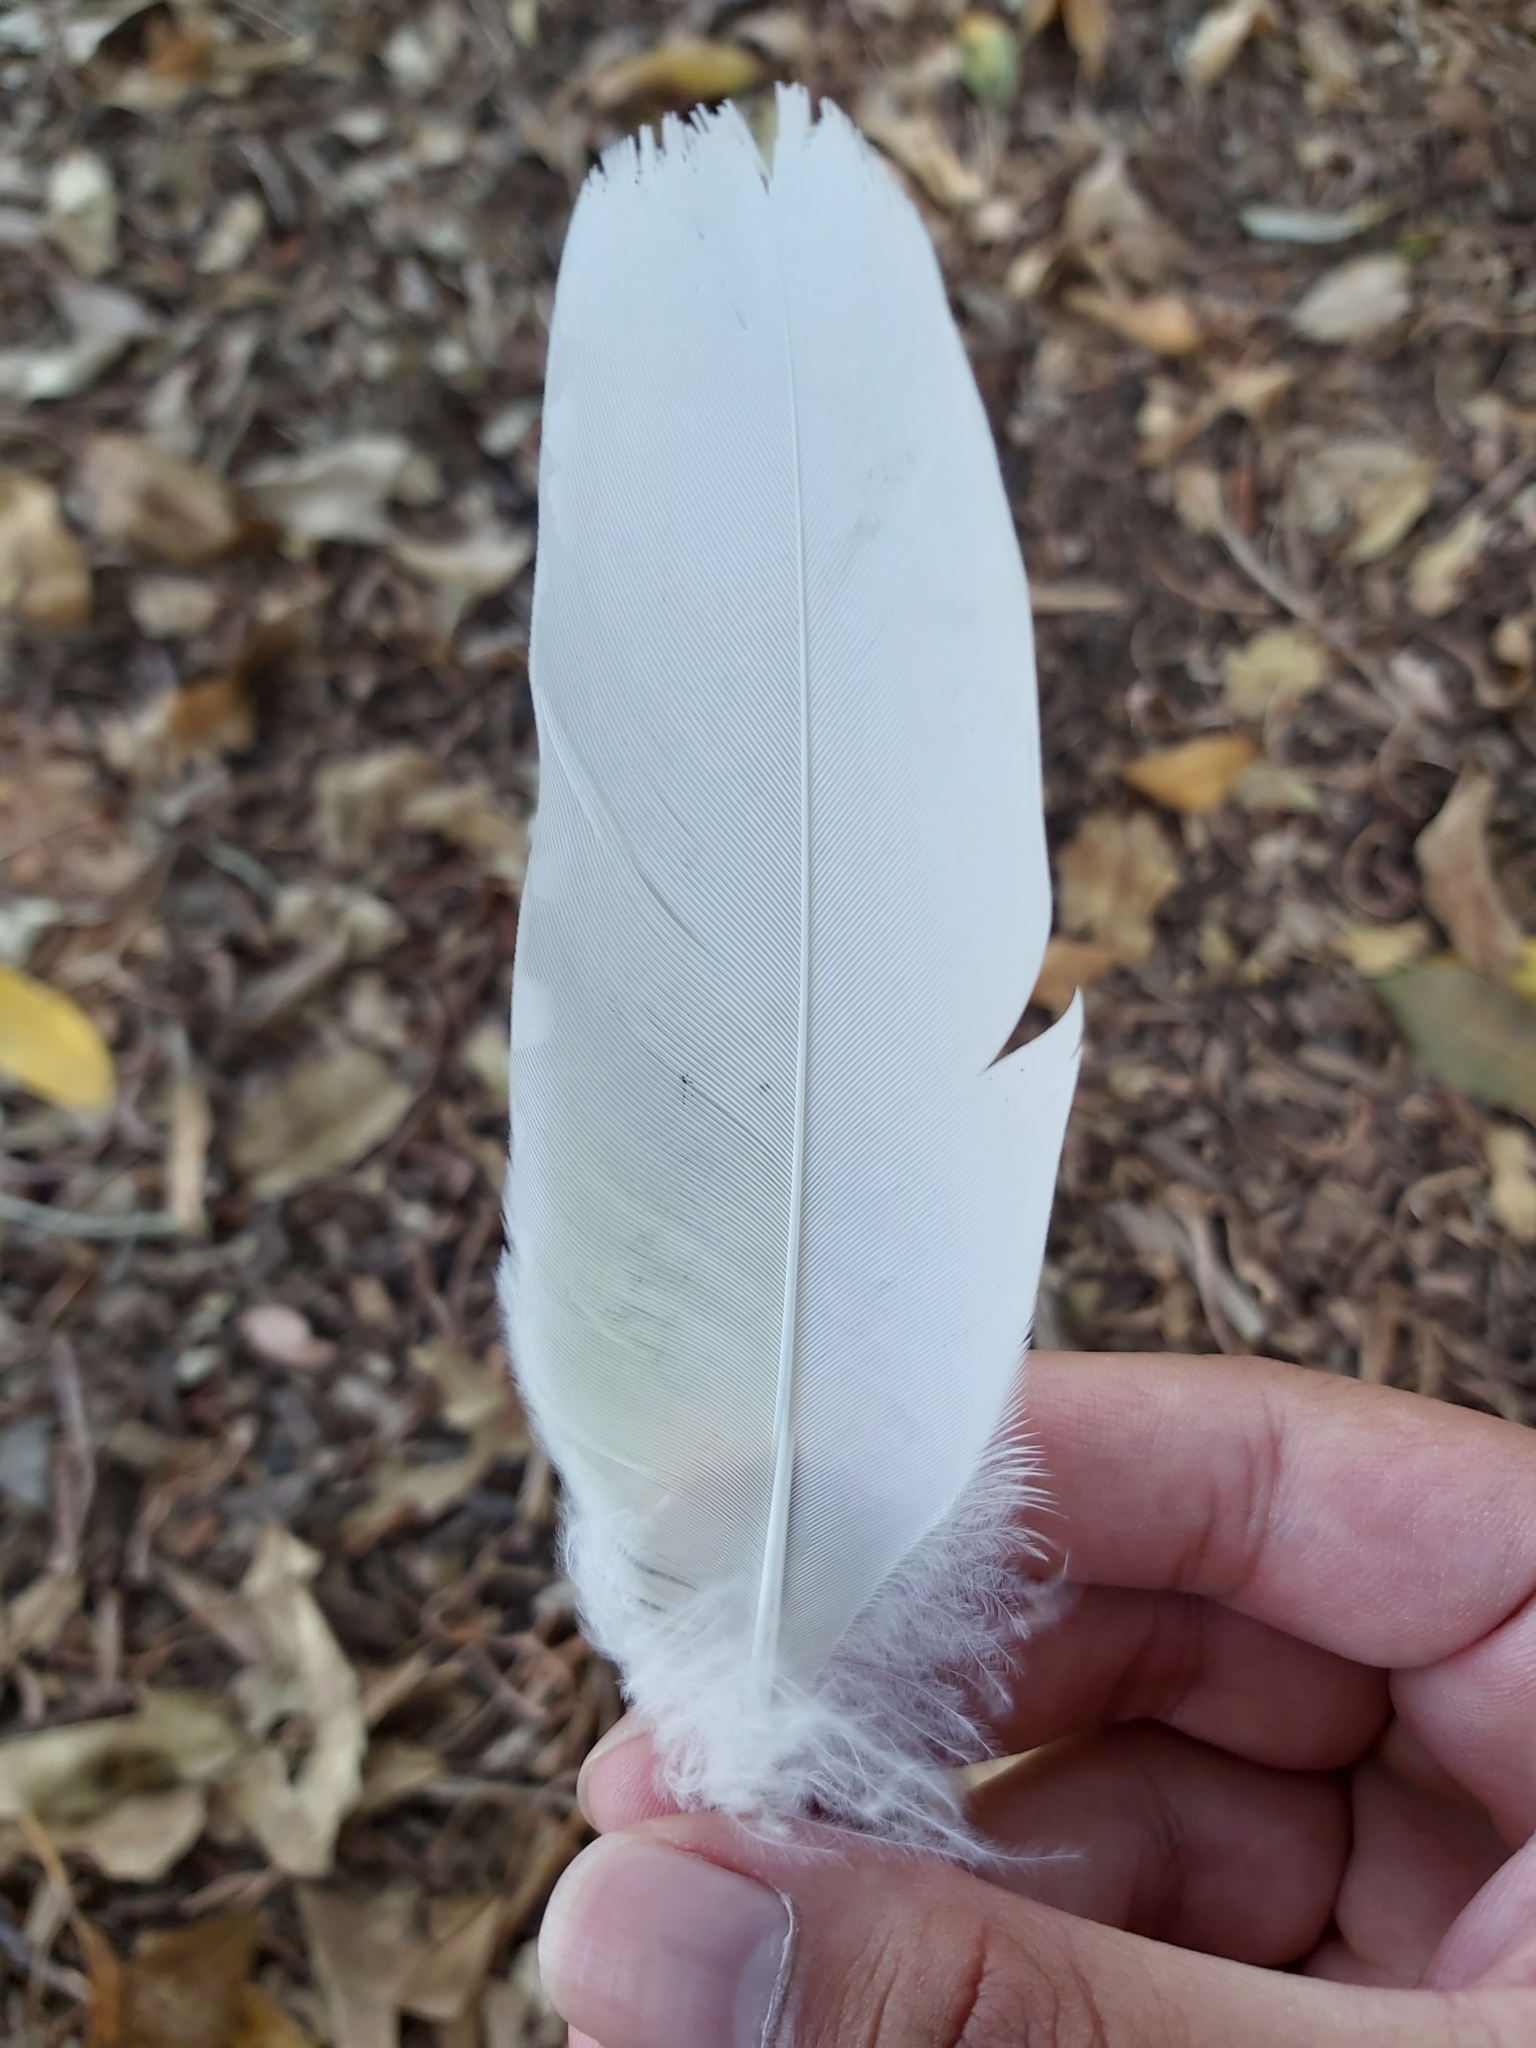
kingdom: Animalia
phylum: Chordata
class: Aves
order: Psittaciformes
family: Psittacidae
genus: Cacatua
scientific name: Cacatua galerita
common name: Sulphur-crested cockatoo
